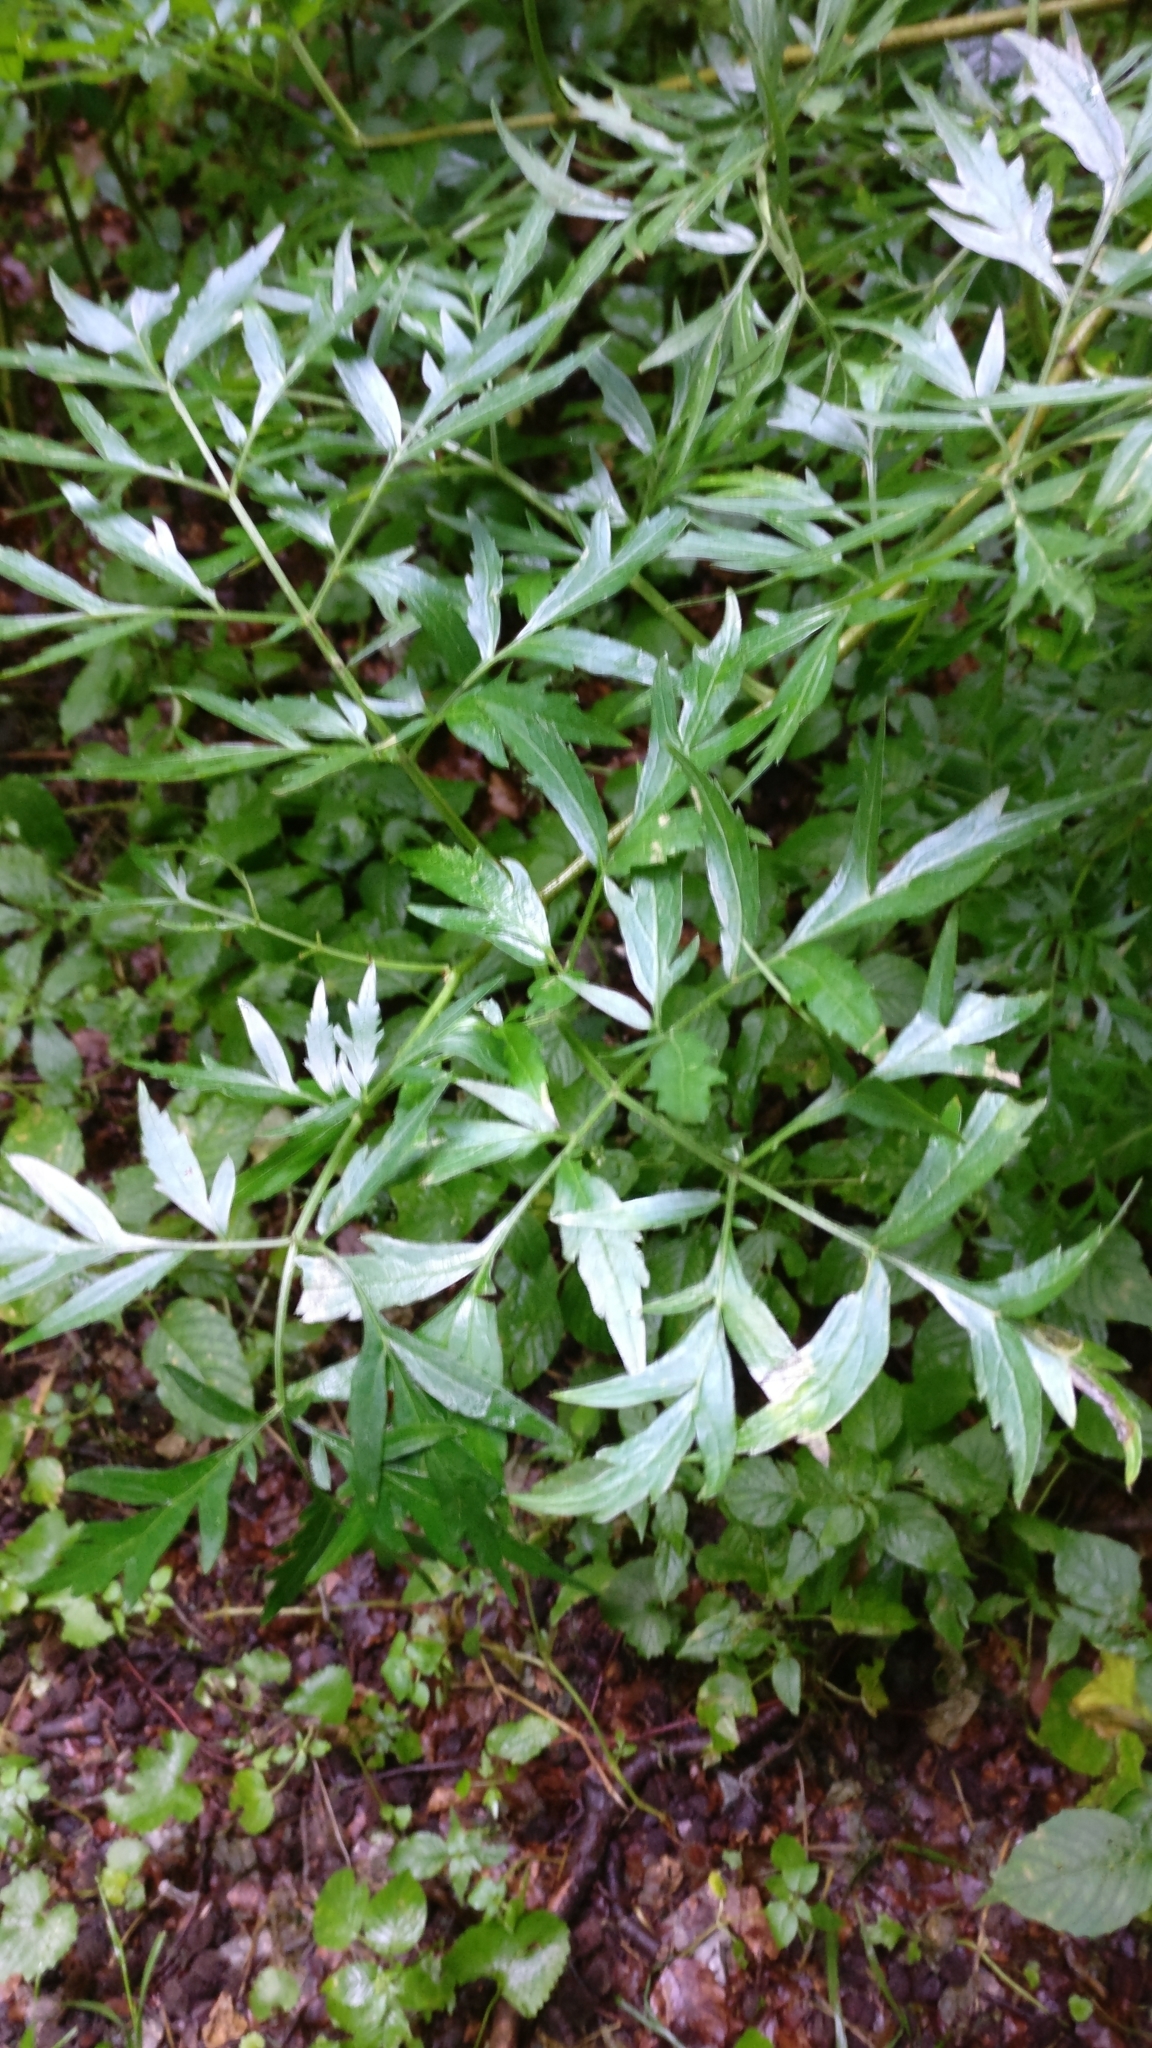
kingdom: Plantae
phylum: Tracheophyta
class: Magnoliopsida
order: Dipsacales
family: Viburnaceae
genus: Sambucus
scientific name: Sambucus nigra
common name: Elder
